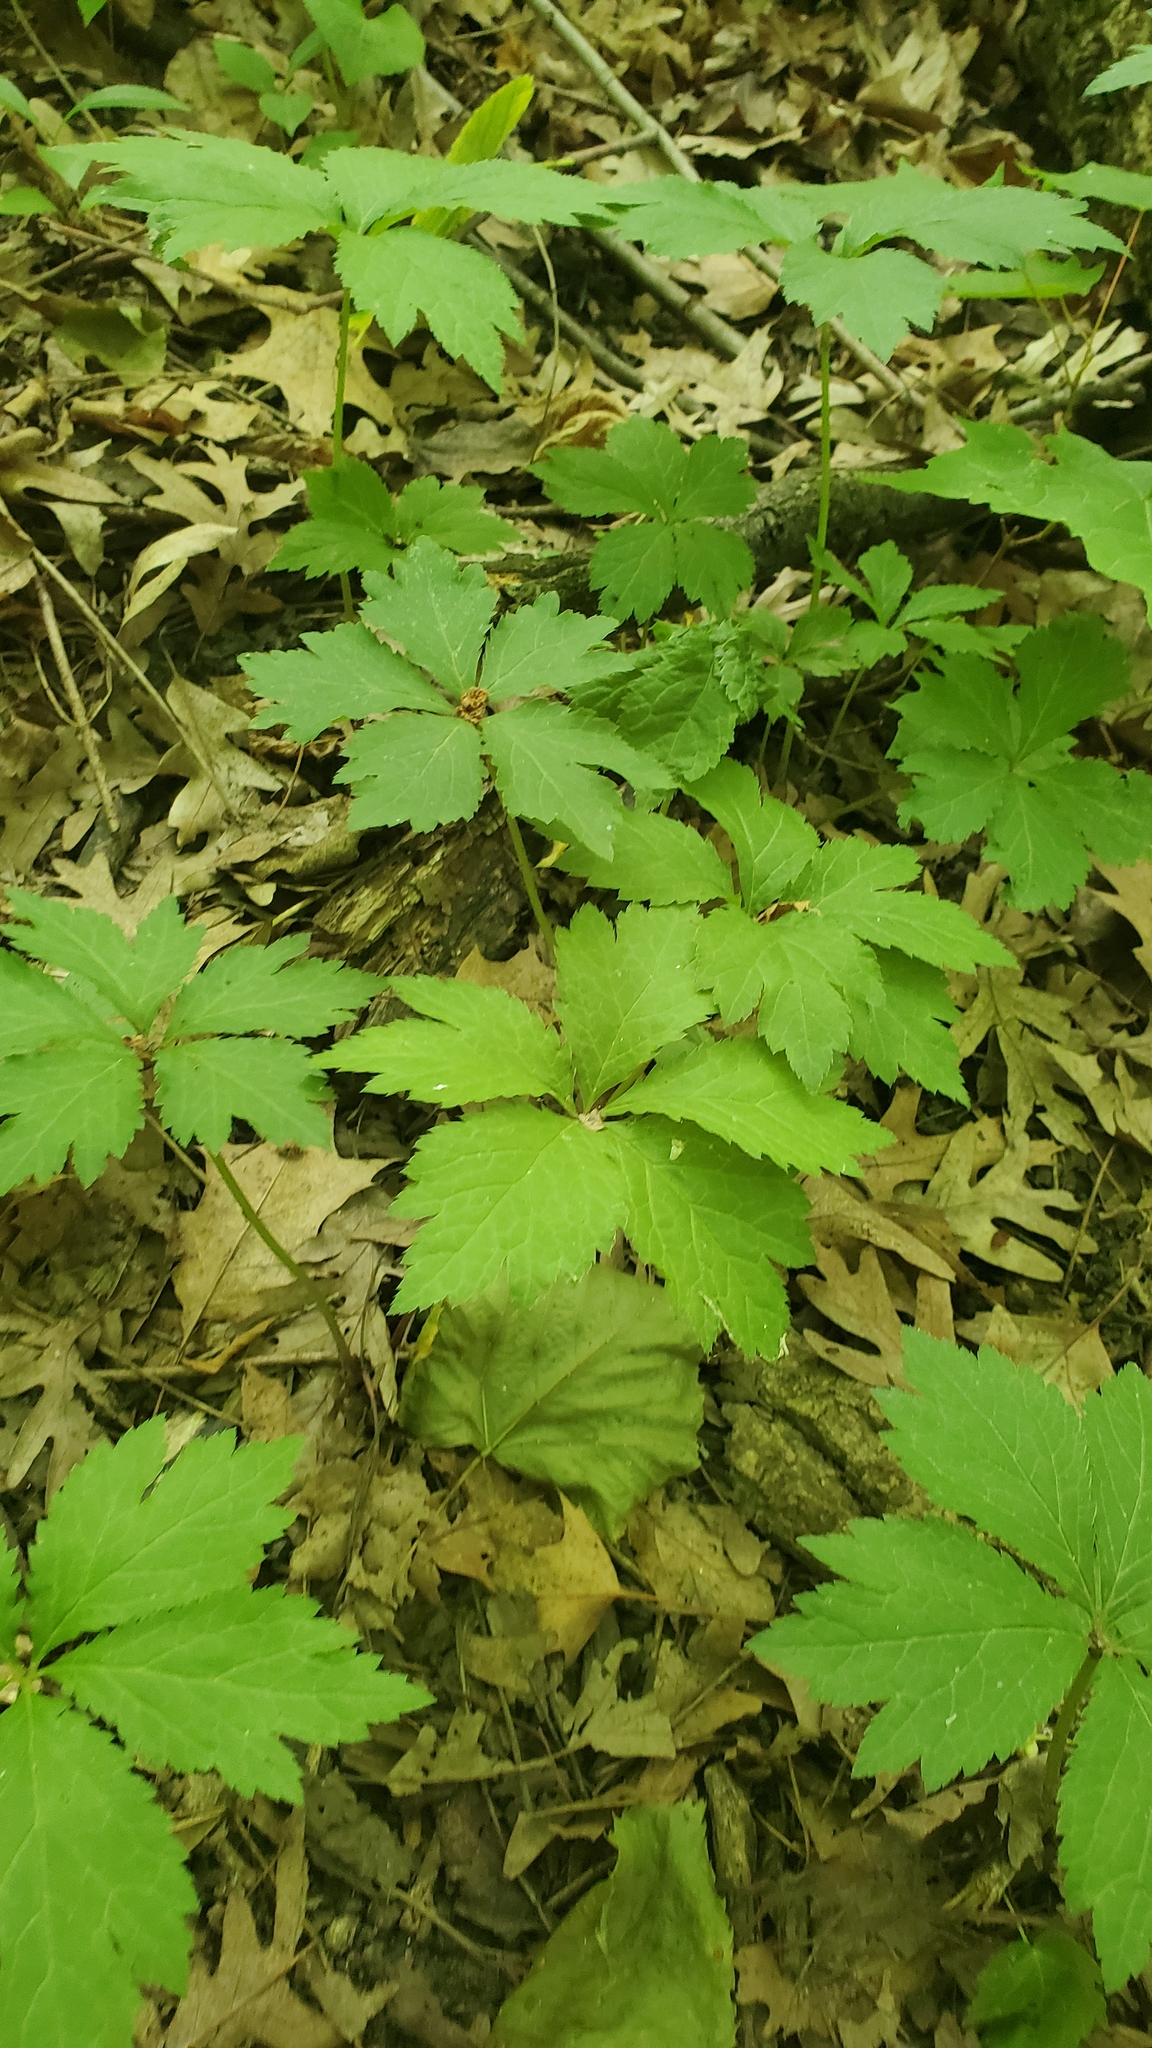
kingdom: Plantae
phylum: Tracheophyta
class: Magnoliopsida
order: Apiales
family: Apiaceae
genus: Sanicula
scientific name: Sanicula odorata
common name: Cluster sanicle
